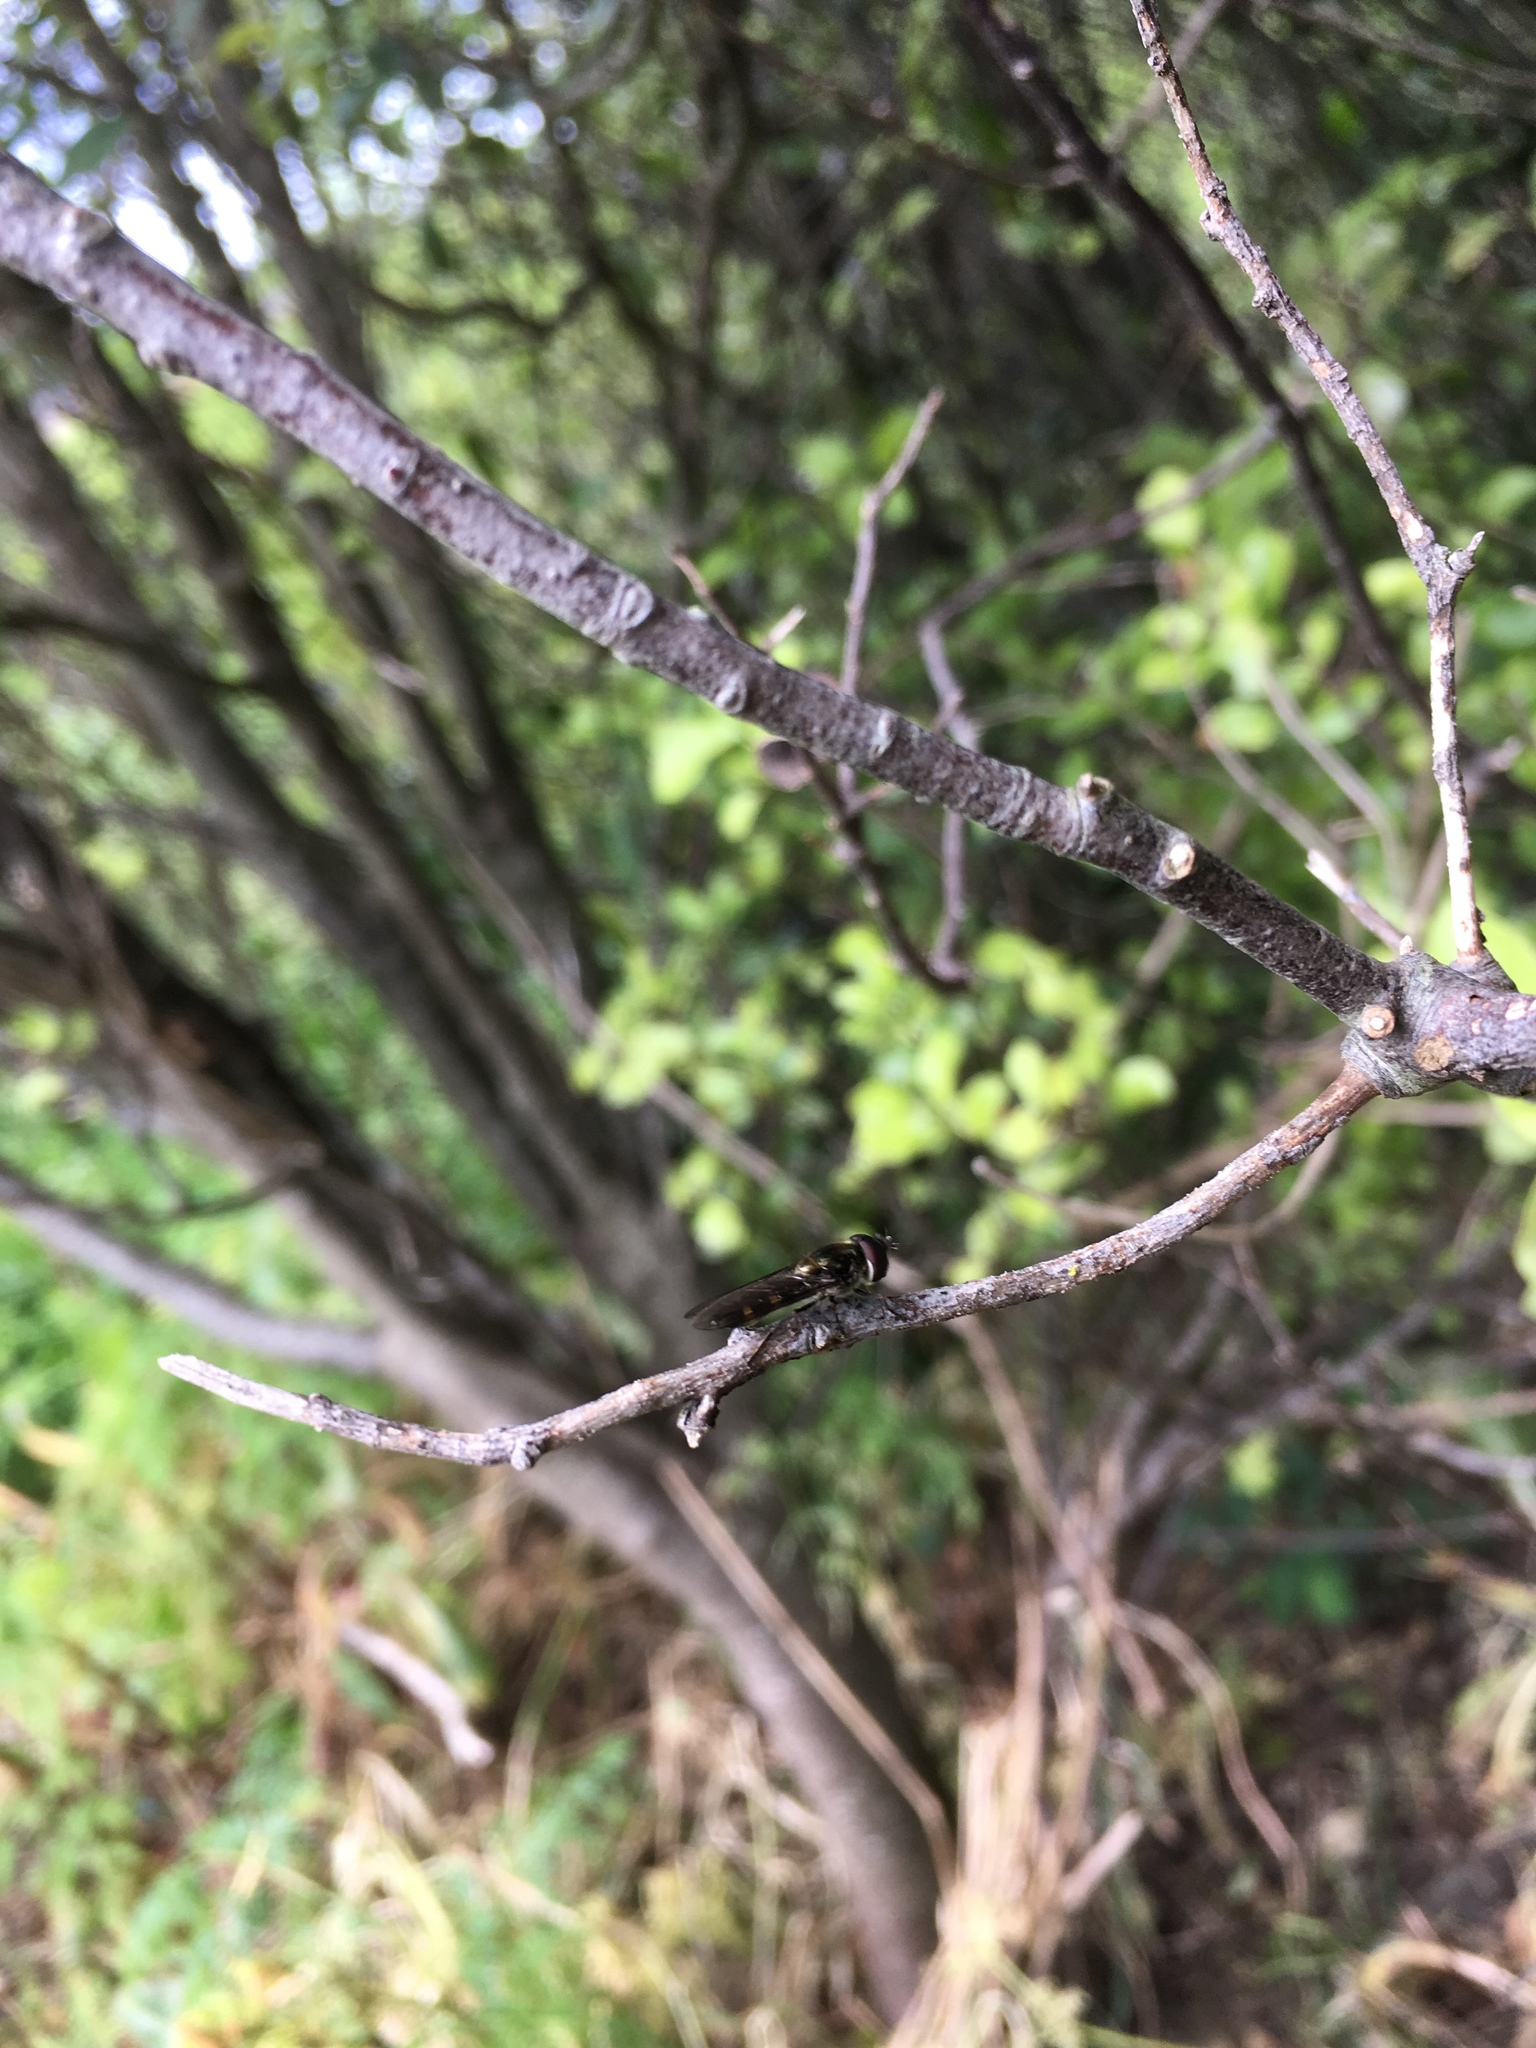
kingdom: Animalia
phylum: Arthropoda
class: Insecta
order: Diptera
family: Syrphidae
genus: Melangyna
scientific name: Melangyna novaezelandiae
